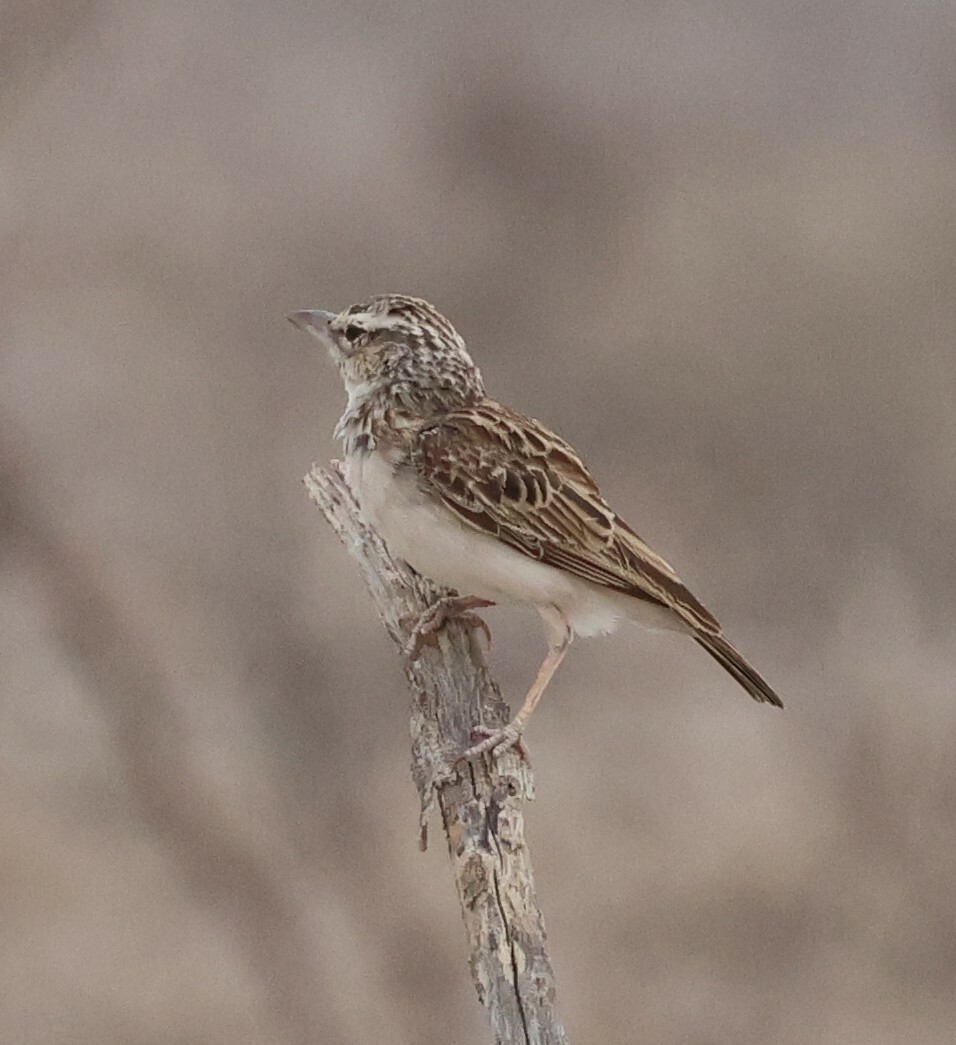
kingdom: Animalia
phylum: Chordata
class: Aves
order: Passeriformes
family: Alaudidae
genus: Calendulauda
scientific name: Calendulauda sabota
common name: Sabota lark
